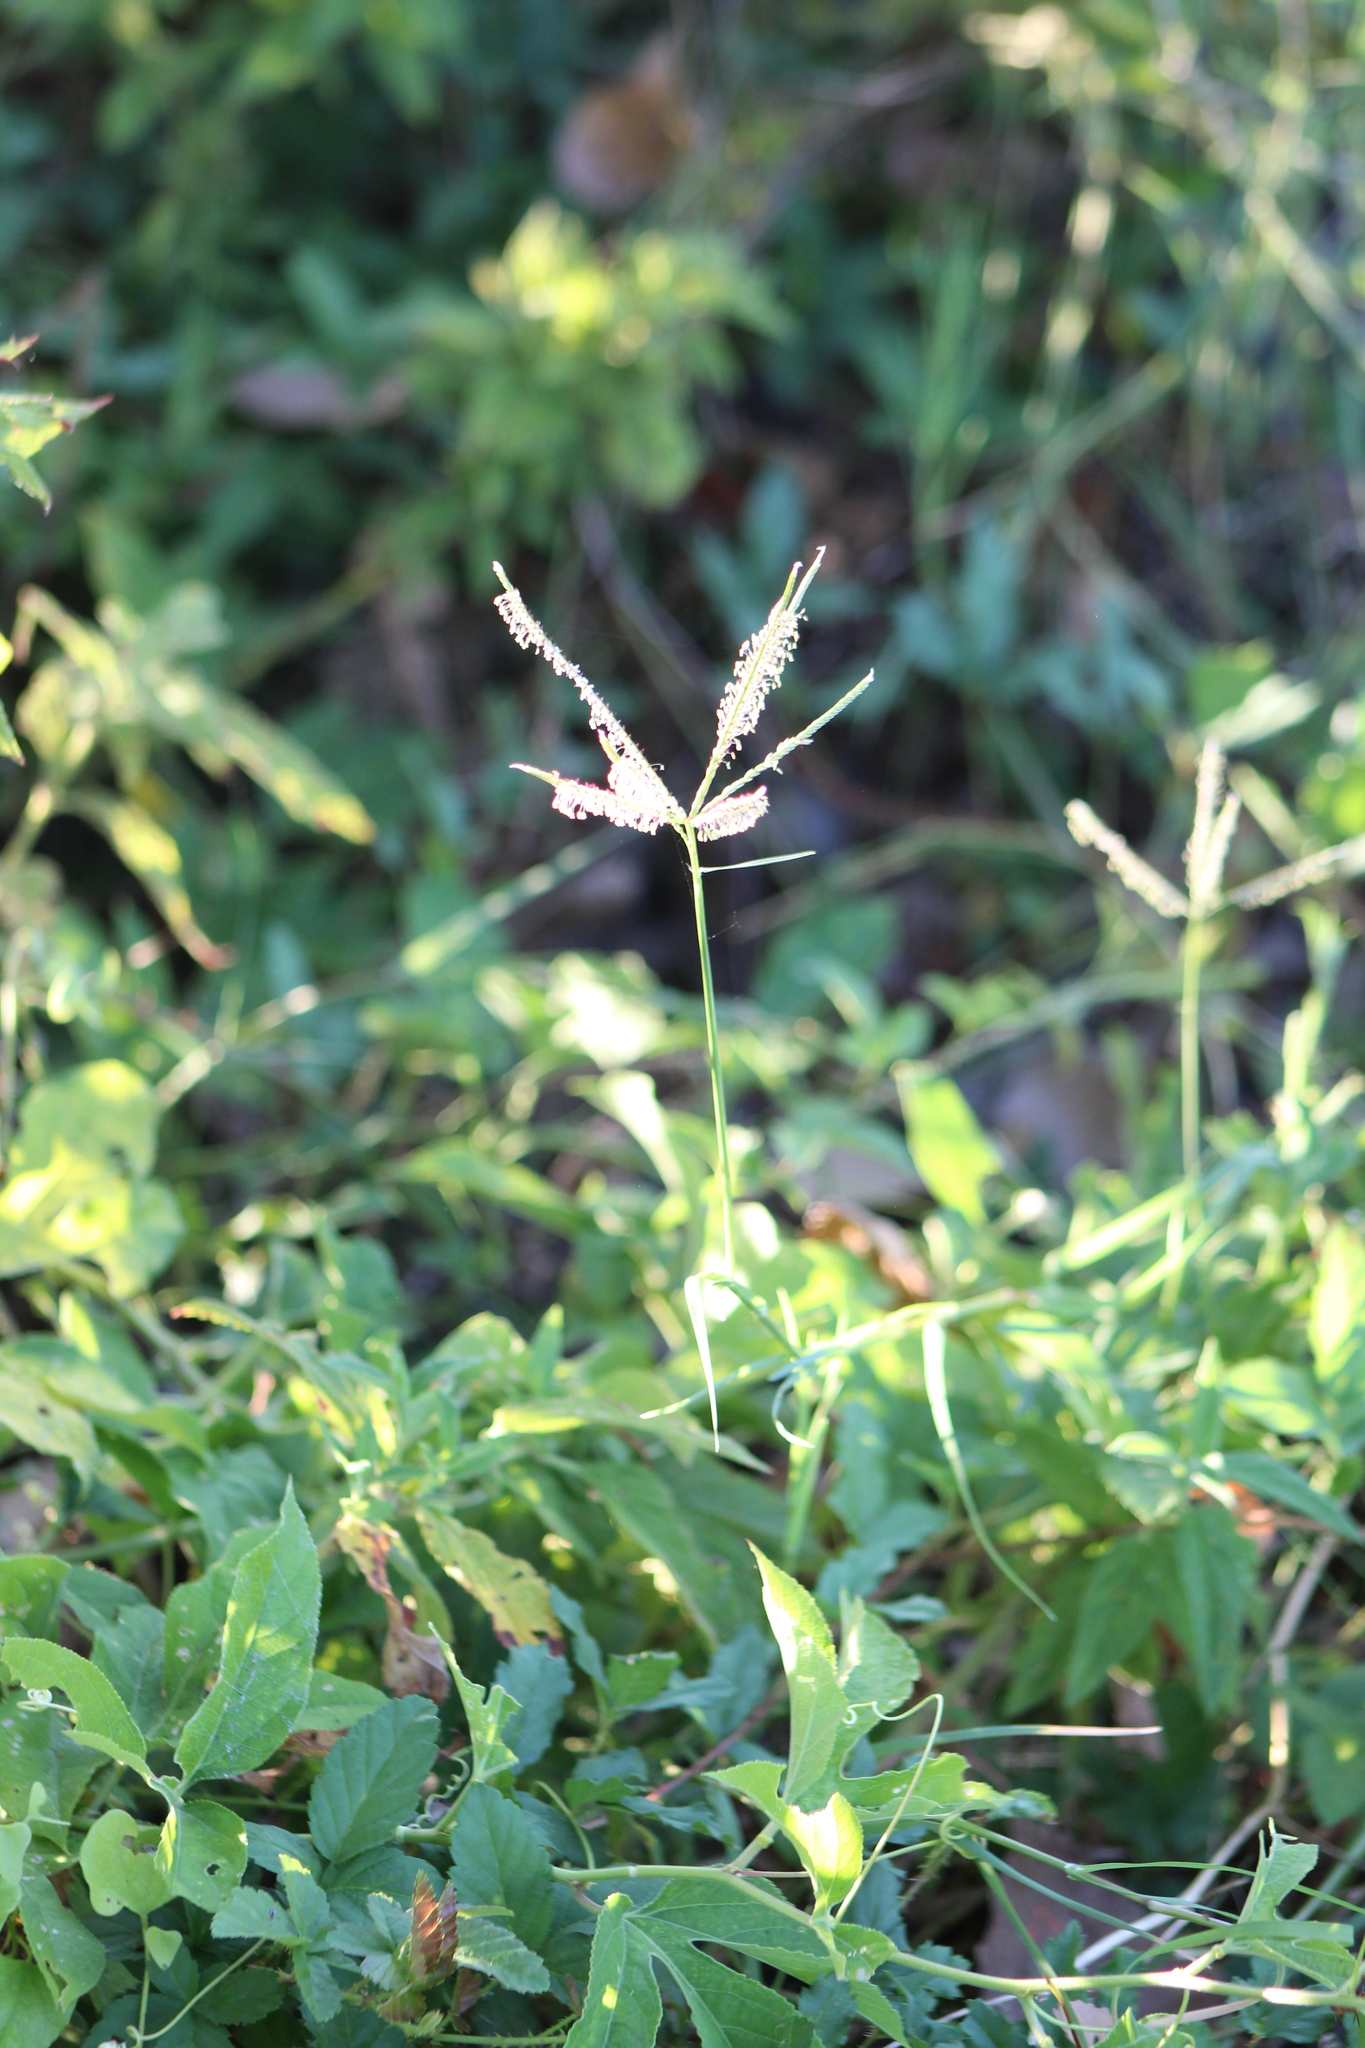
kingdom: Plantae
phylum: Tracheophyta
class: Liliopsida
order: Poales
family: Poaceae
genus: Cynodon
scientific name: Cynodon dactylon
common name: Bermuda grass
